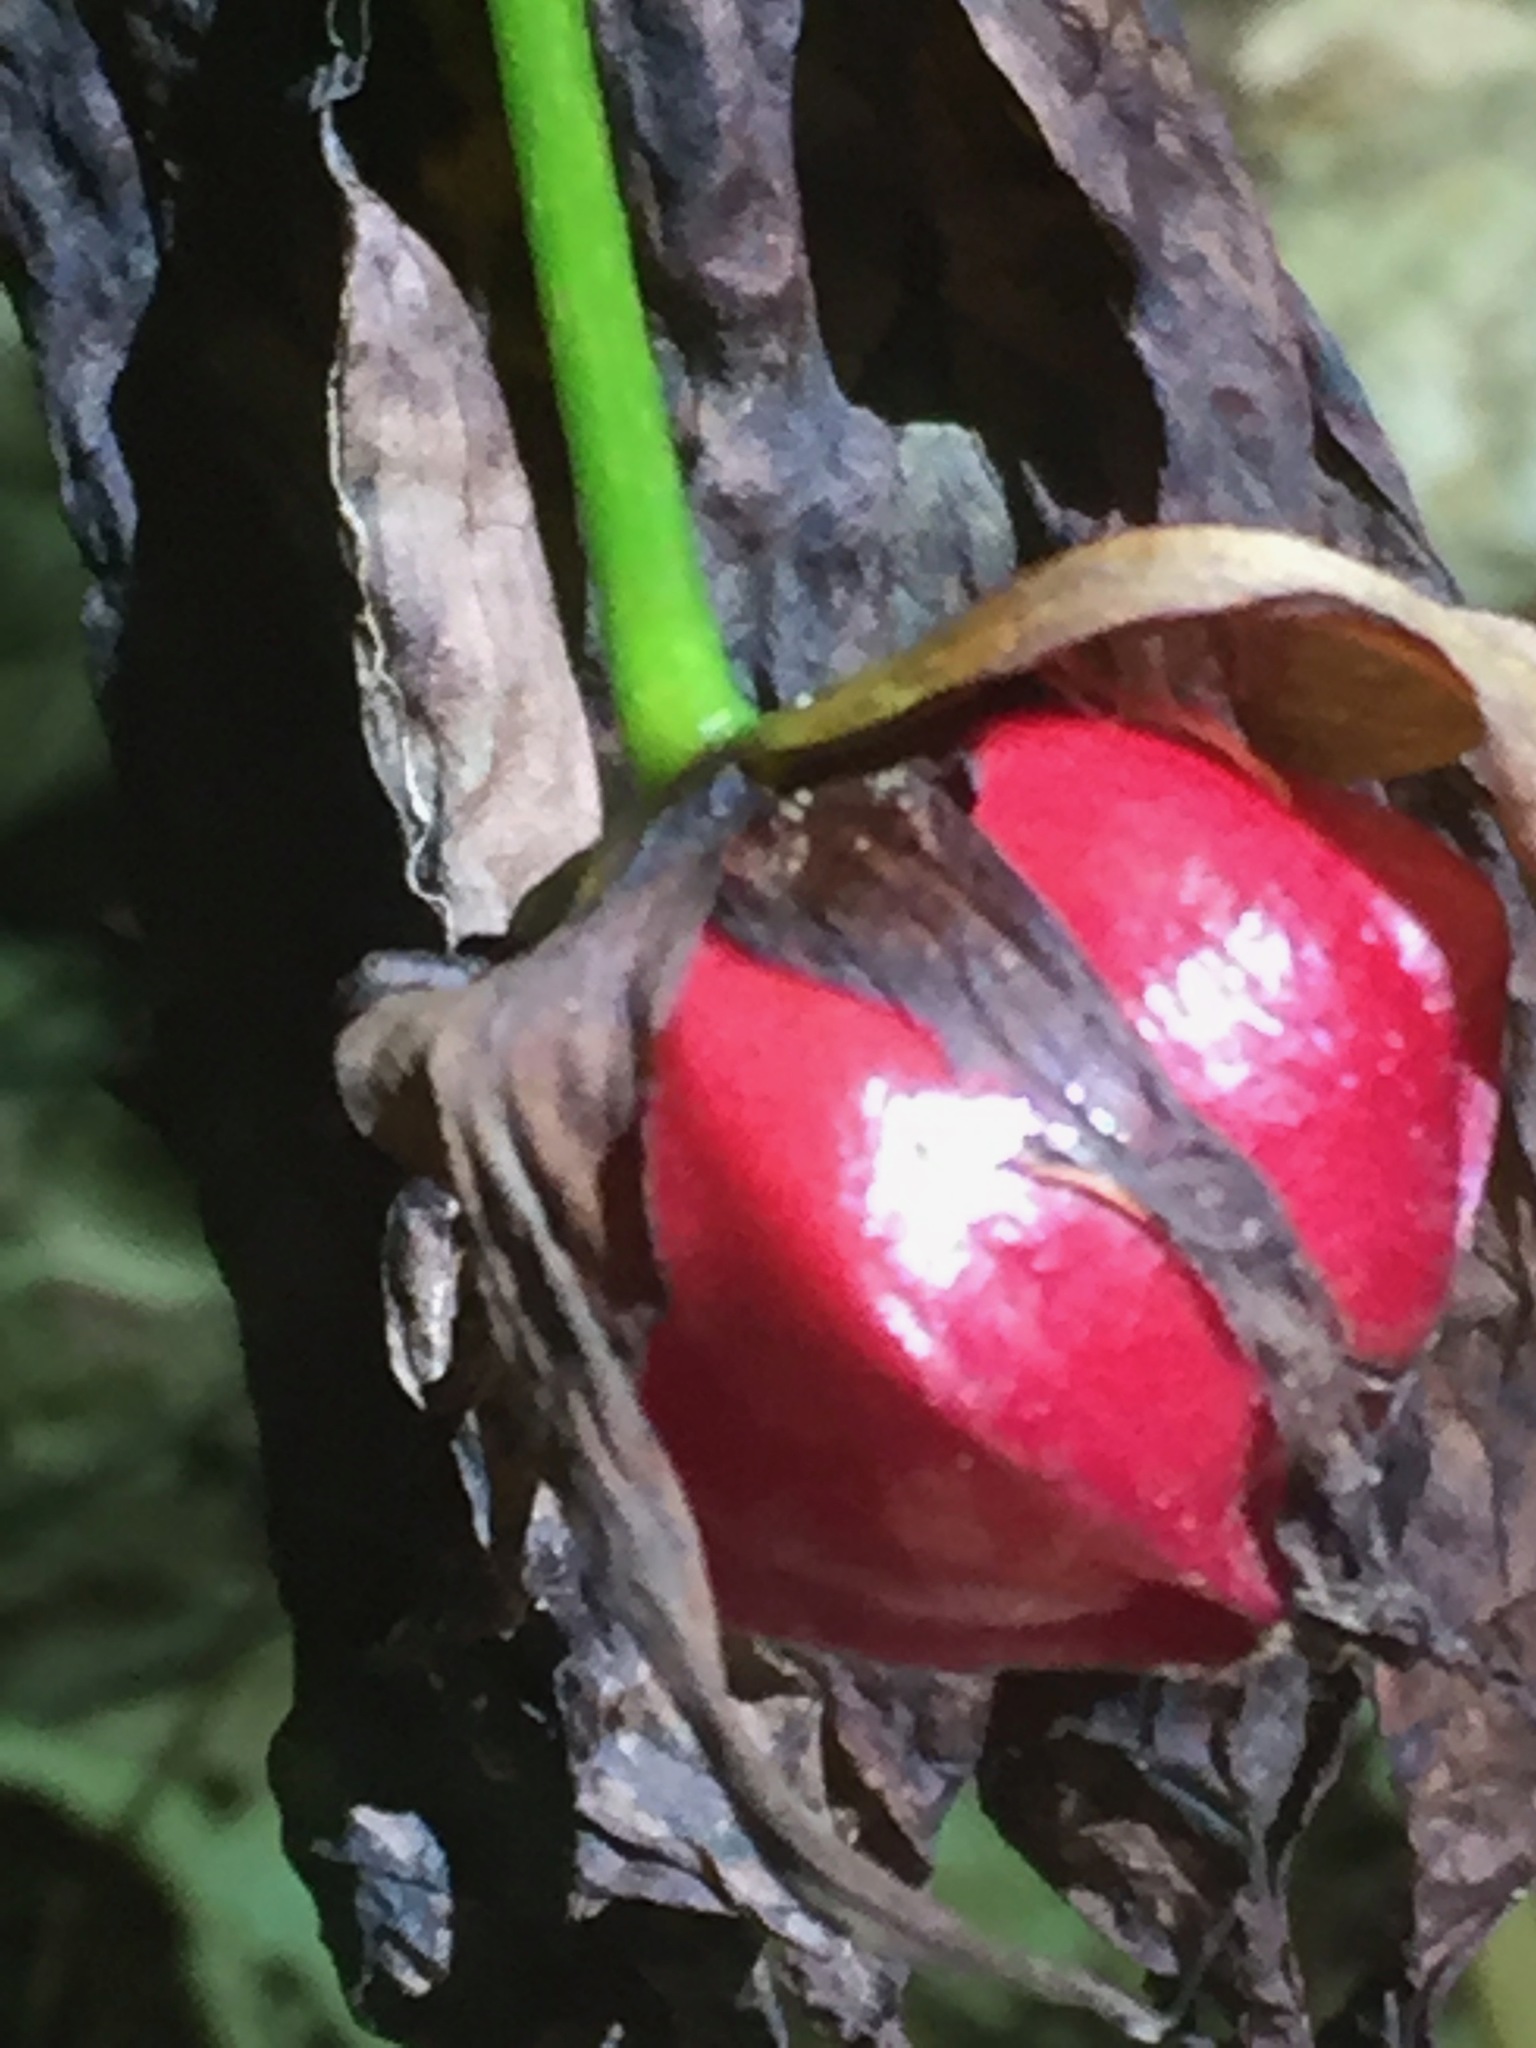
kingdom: Plantae
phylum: Tracheophyta
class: Liliopsida
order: Liliales
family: Melanthiaceae
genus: Trillium
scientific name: Trillium erectum
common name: Purple trillium
